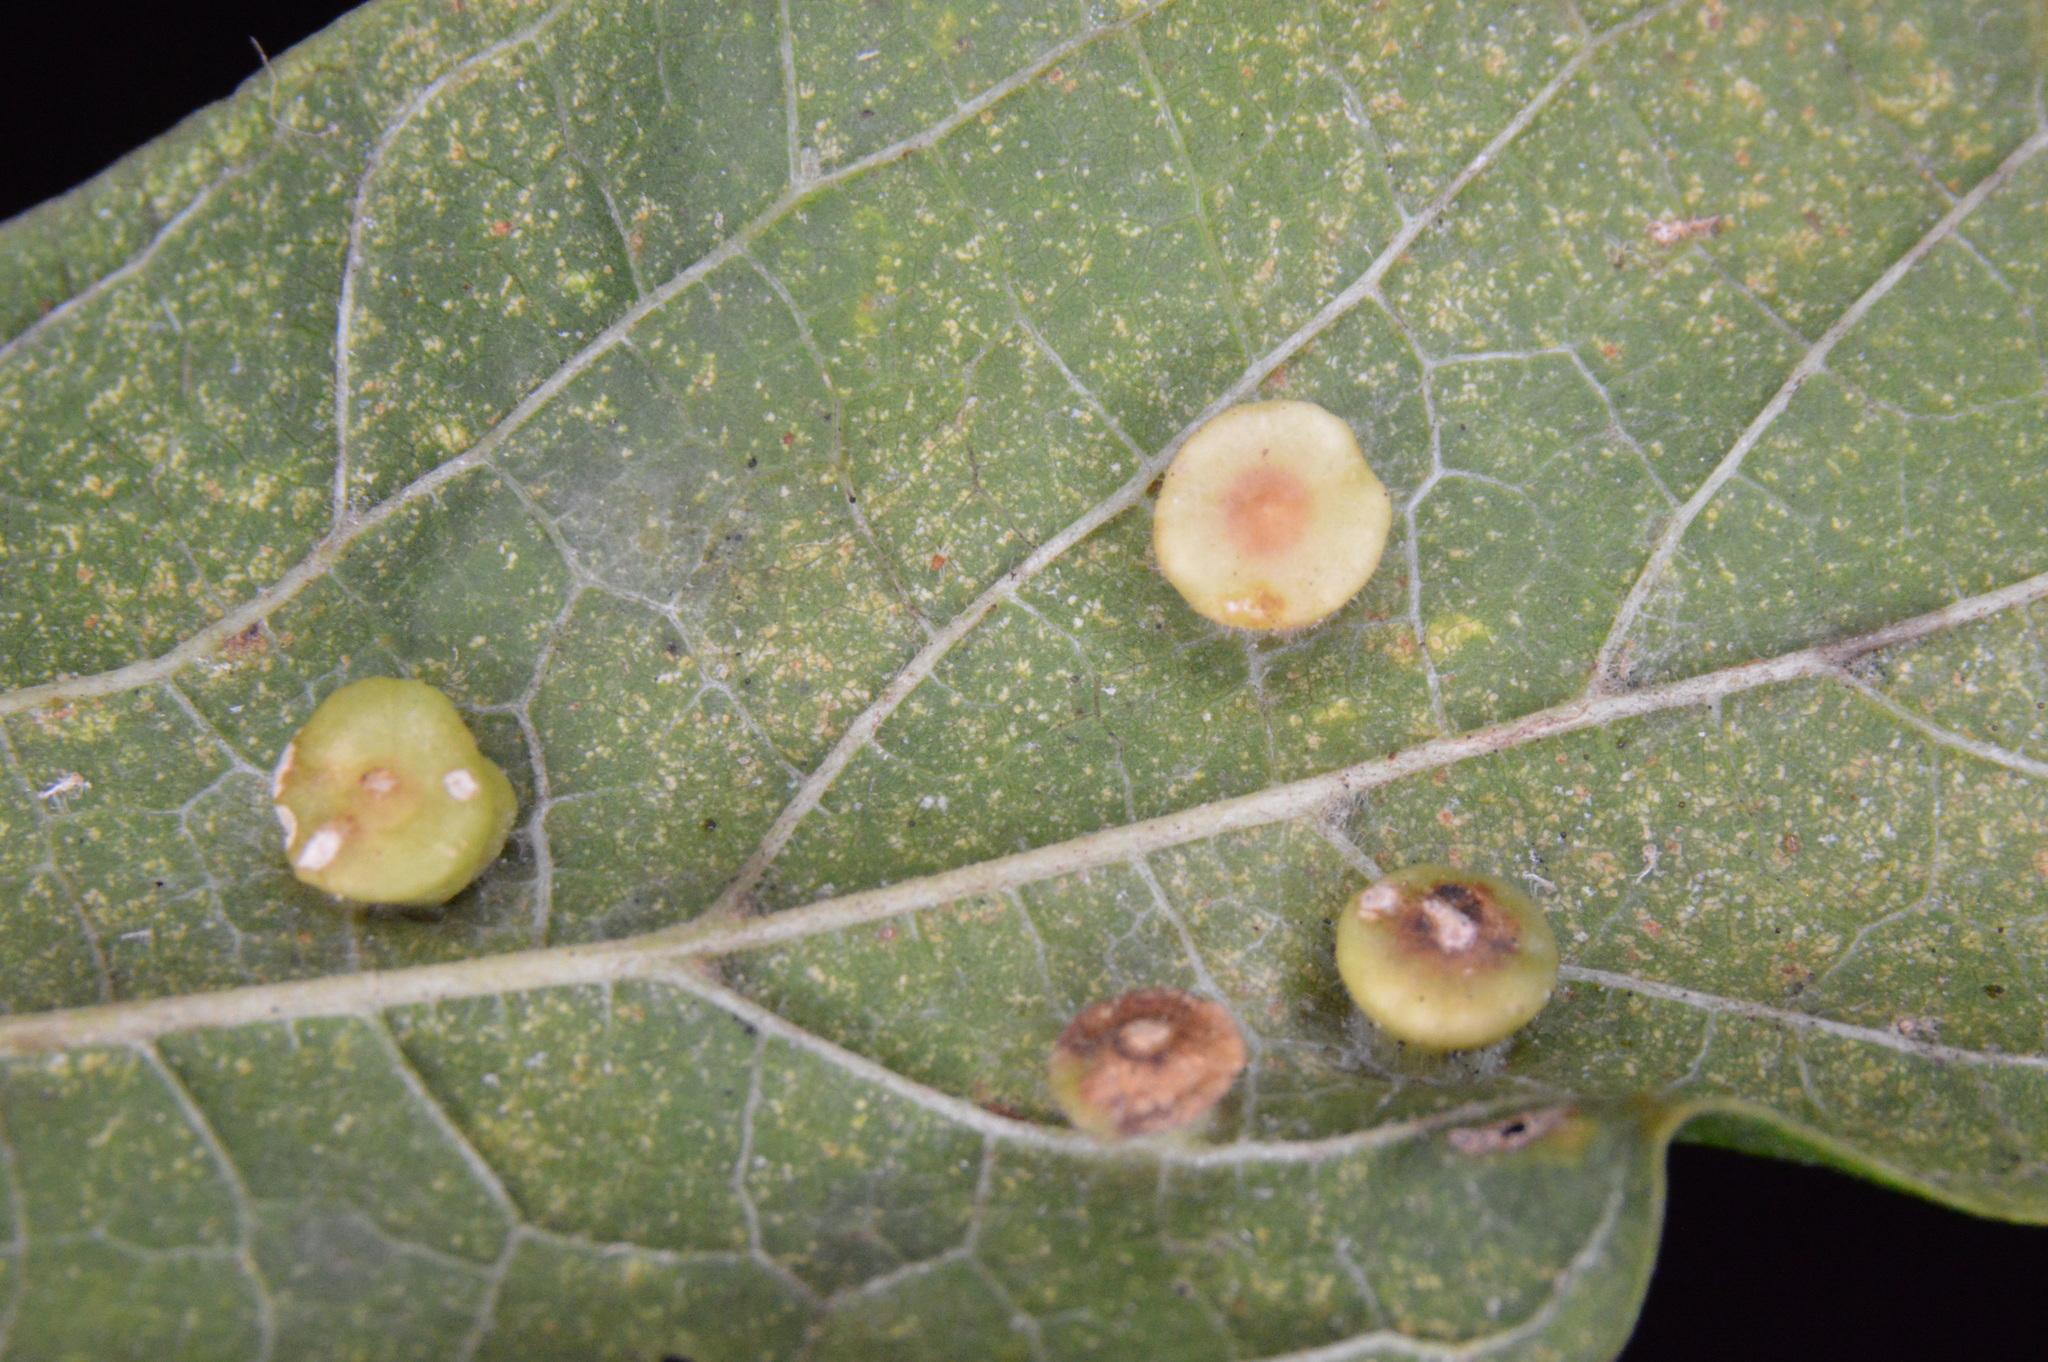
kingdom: Animalia
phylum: Arthropoda
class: Insecta
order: Hemiptera
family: Aphalaridae
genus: Pachypsylla
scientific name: Pachypsylla celtidismamma
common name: Hackberry nipplegall psyllid
